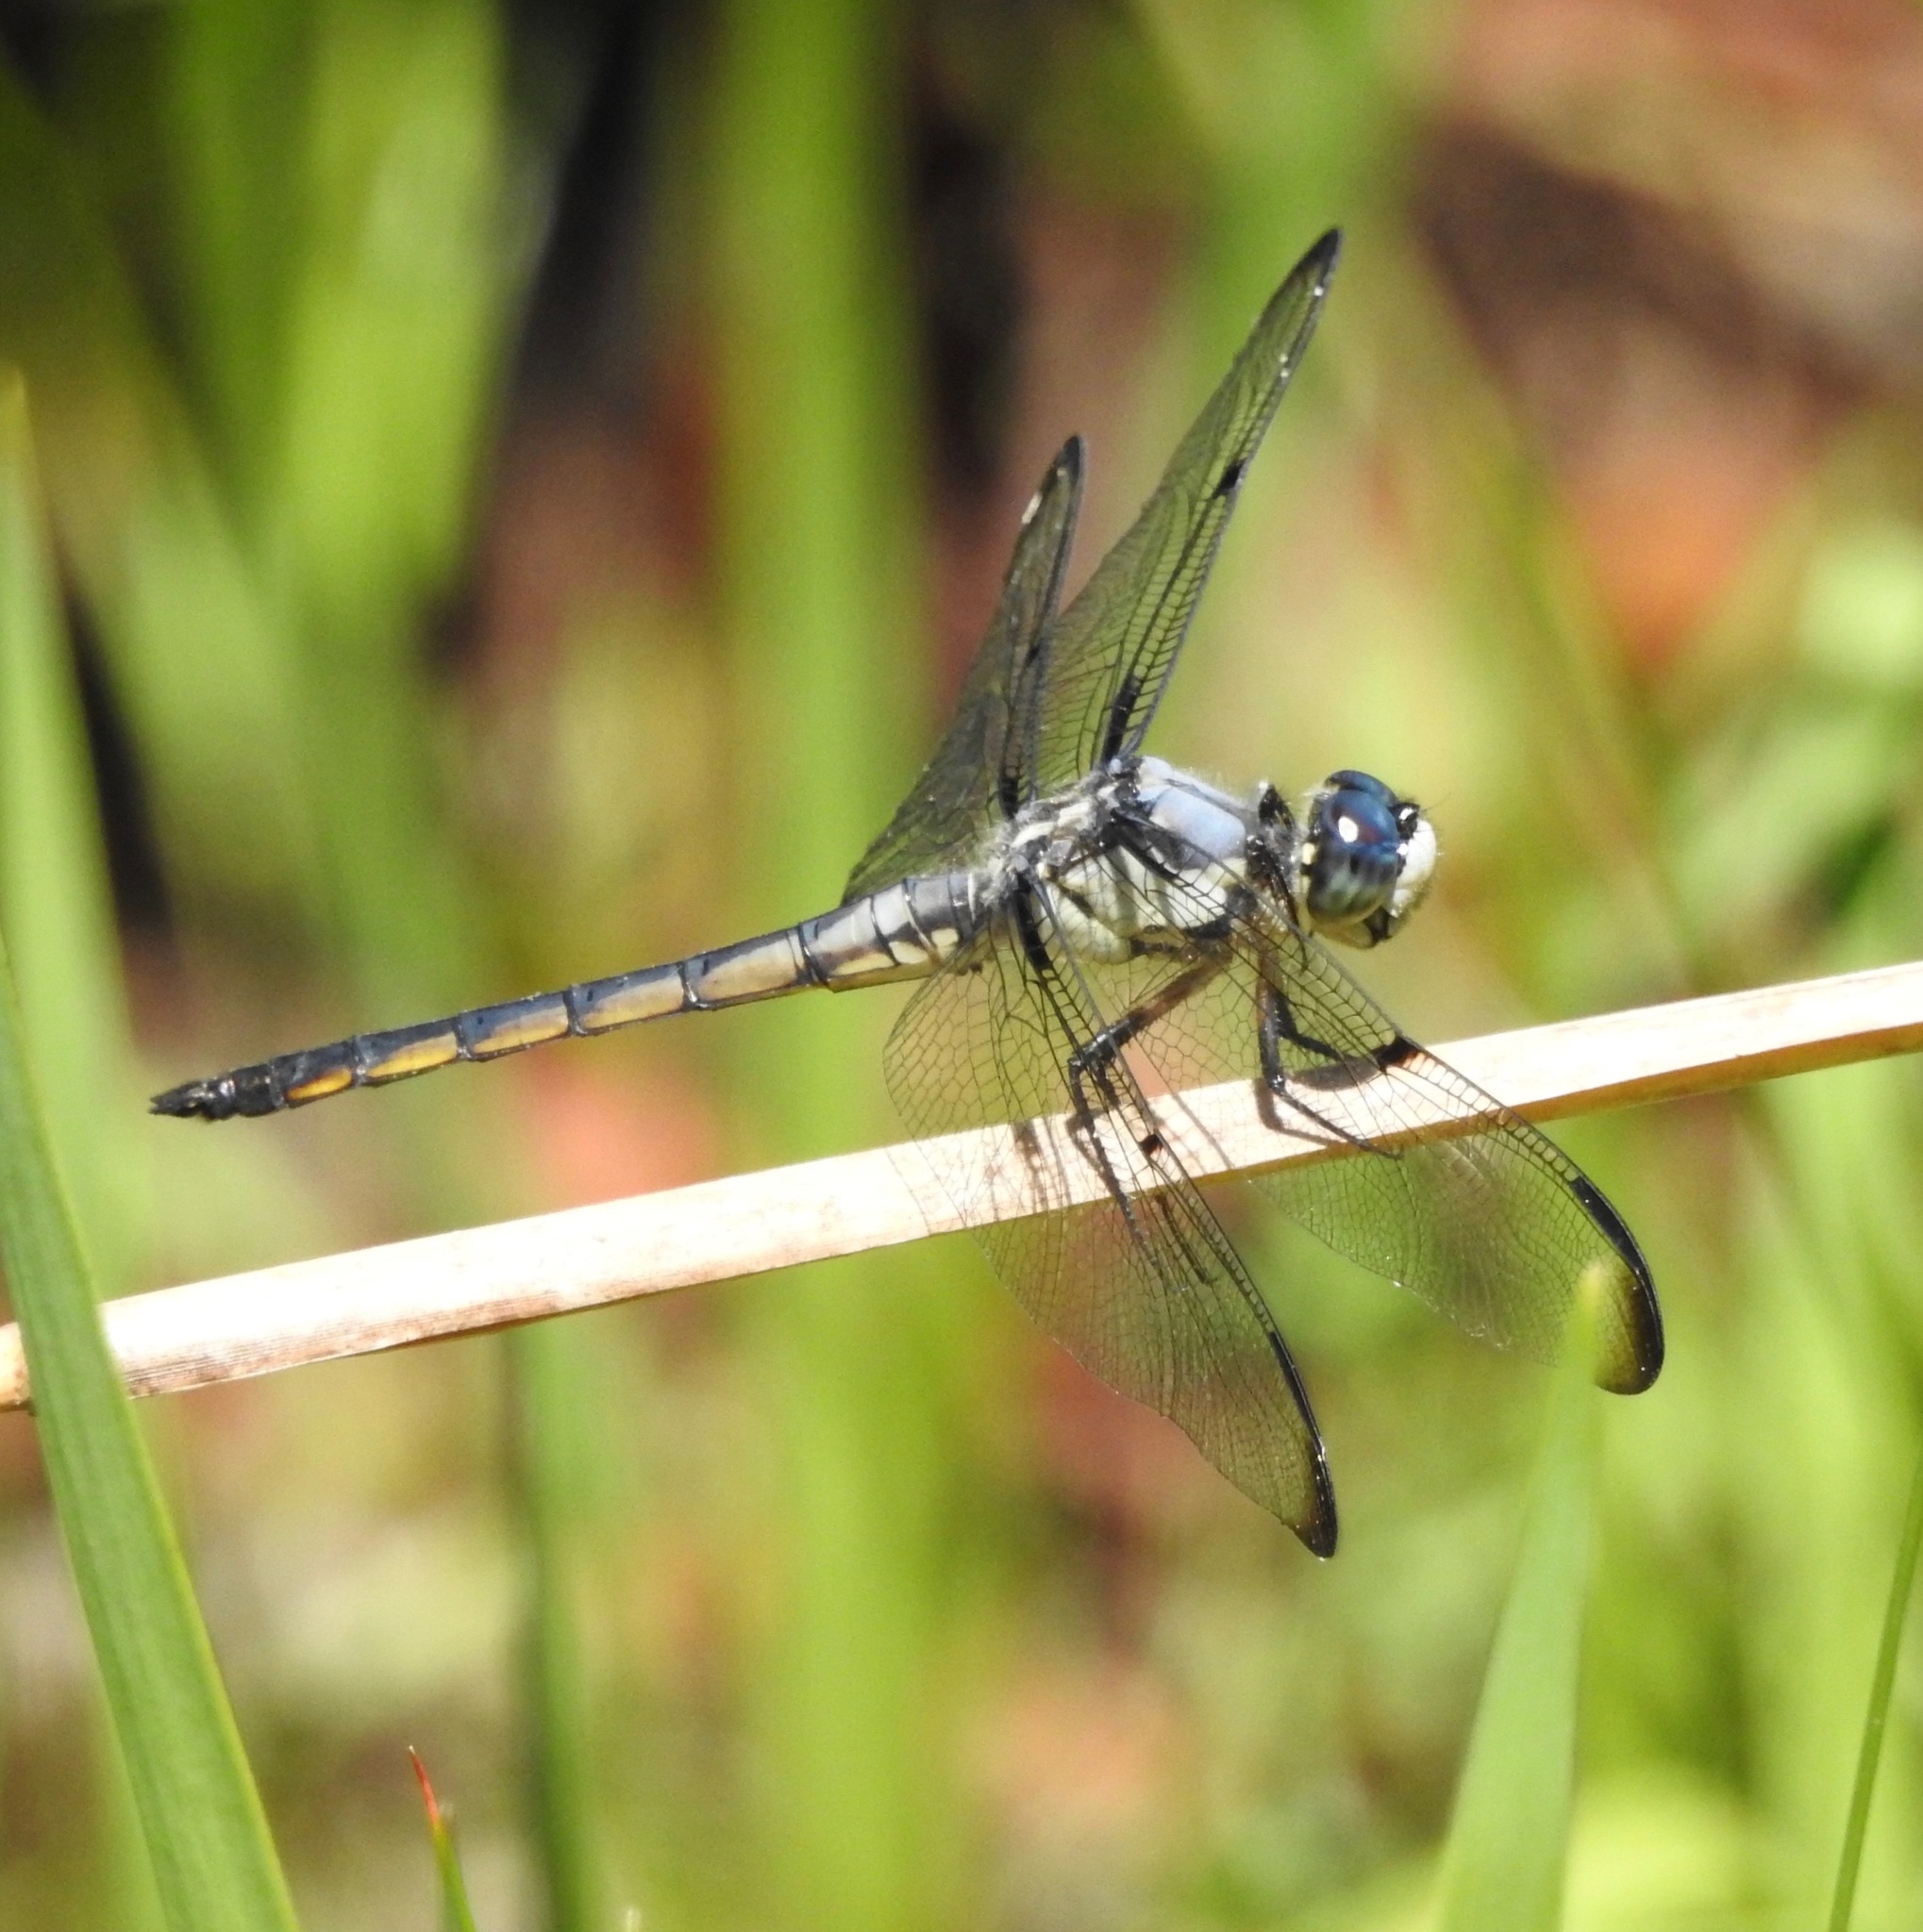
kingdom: Animalia
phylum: Arthropoda
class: Insecta
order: Odonata
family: Libellulidae
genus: Libellula
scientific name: Libellula vibrans
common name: Great blue skimmer
